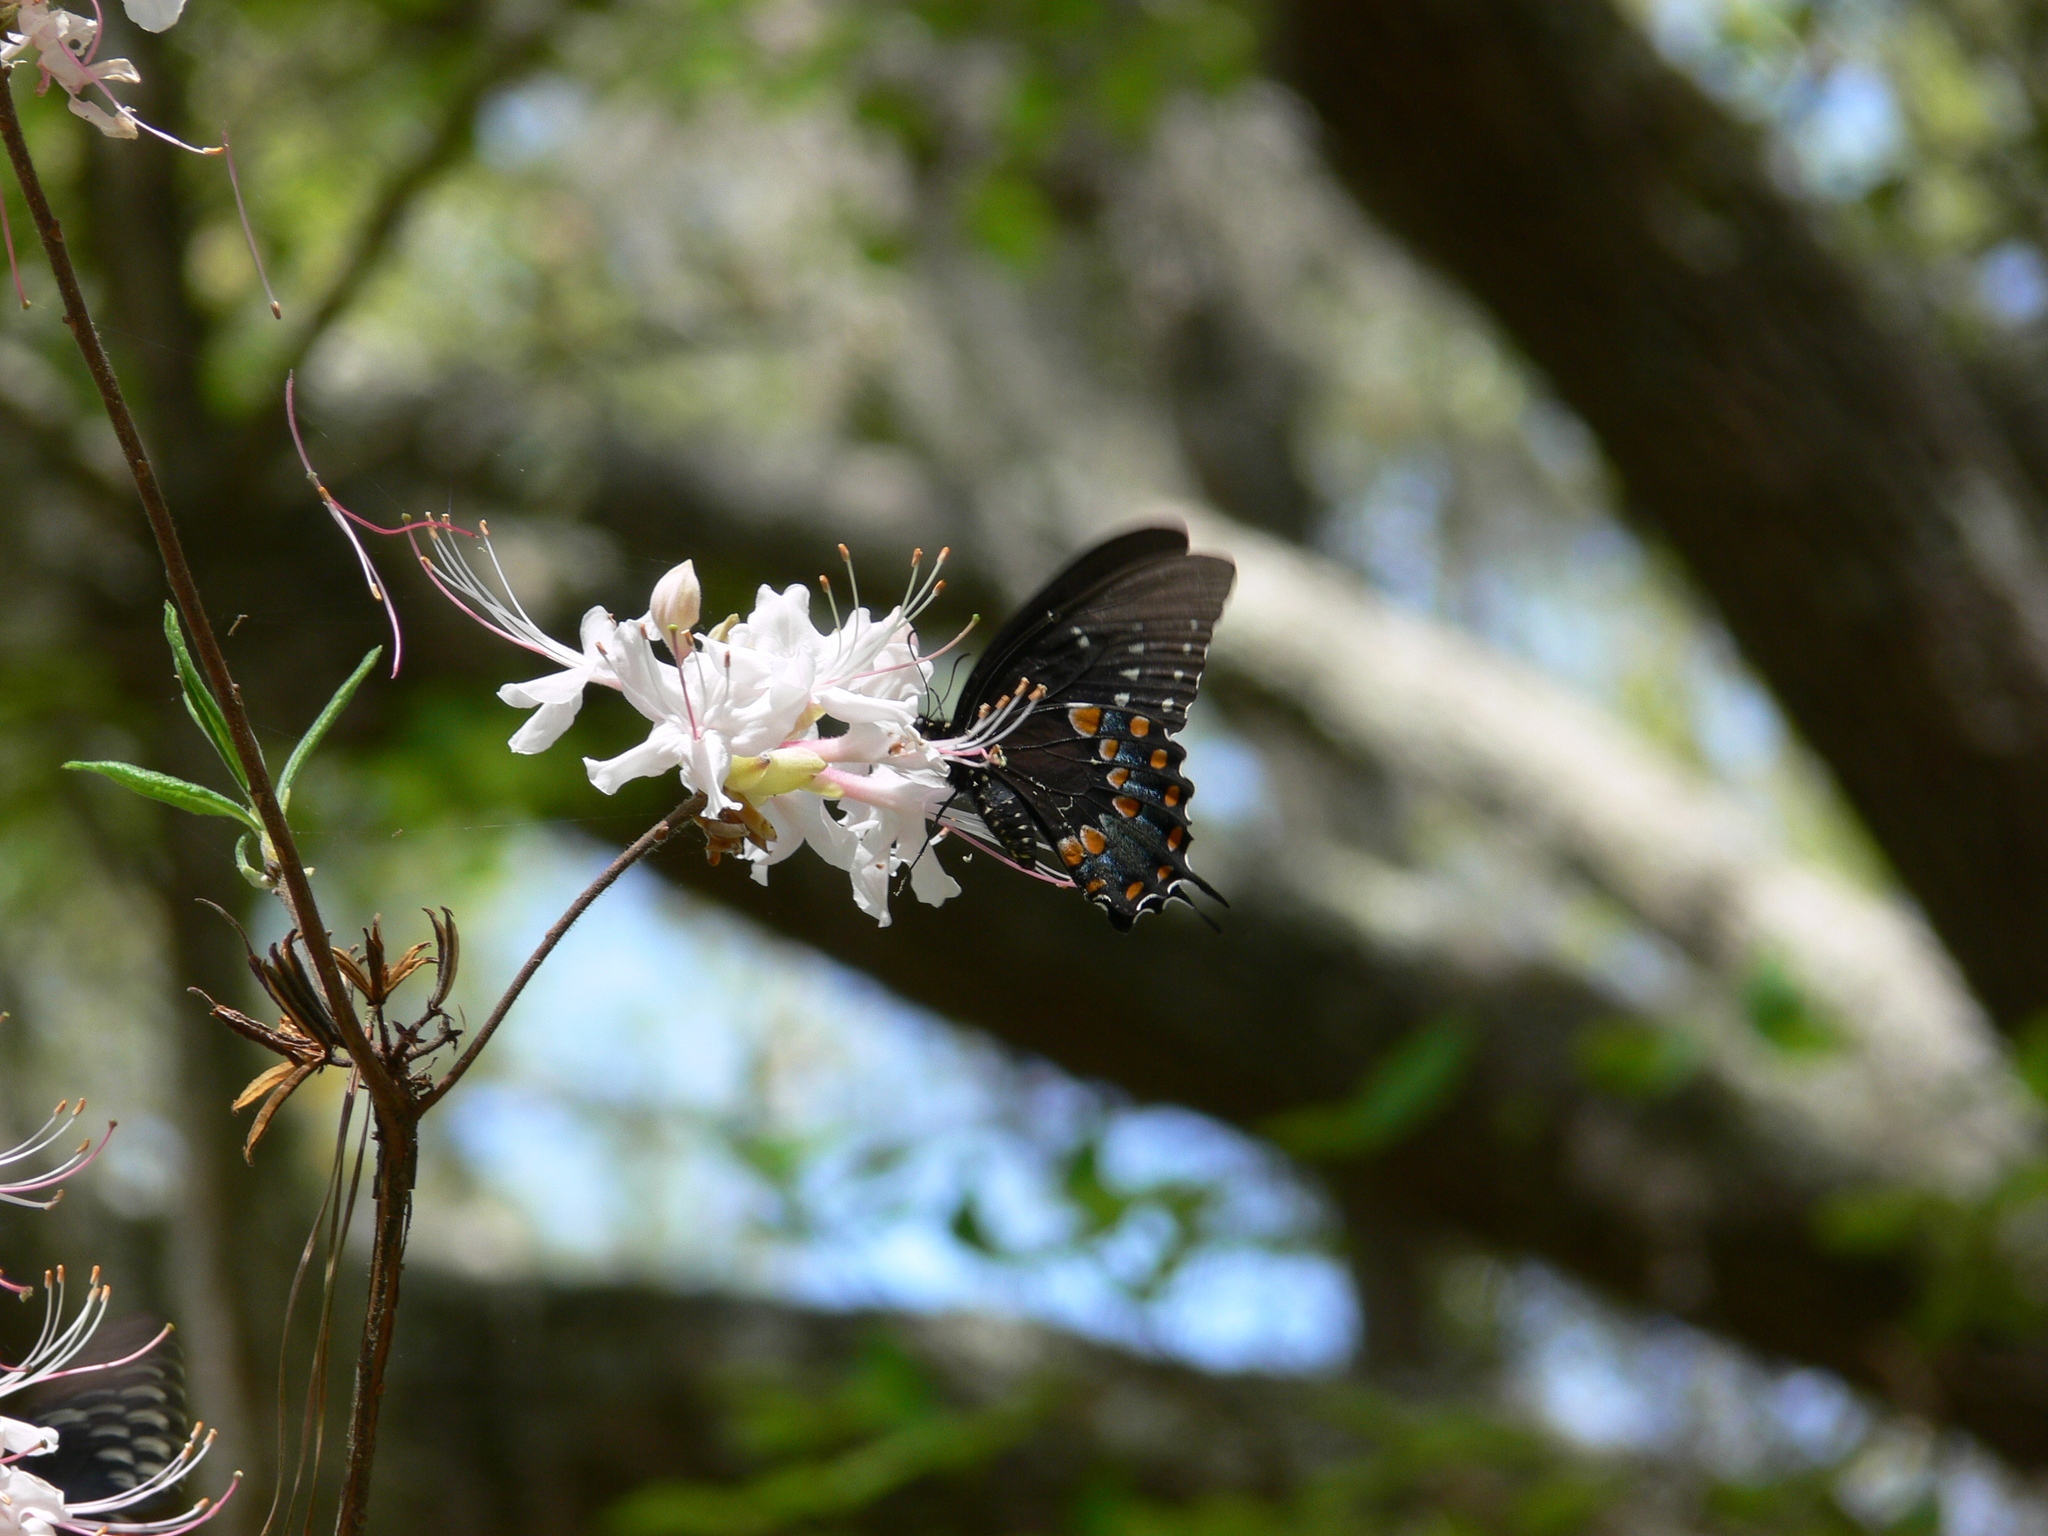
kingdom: Animalia
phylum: Arthropoda
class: Insecta
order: Lepidoptera
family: Papilionidae
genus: Papilio
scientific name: Papilio troilus
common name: Spicebush swallowtail
